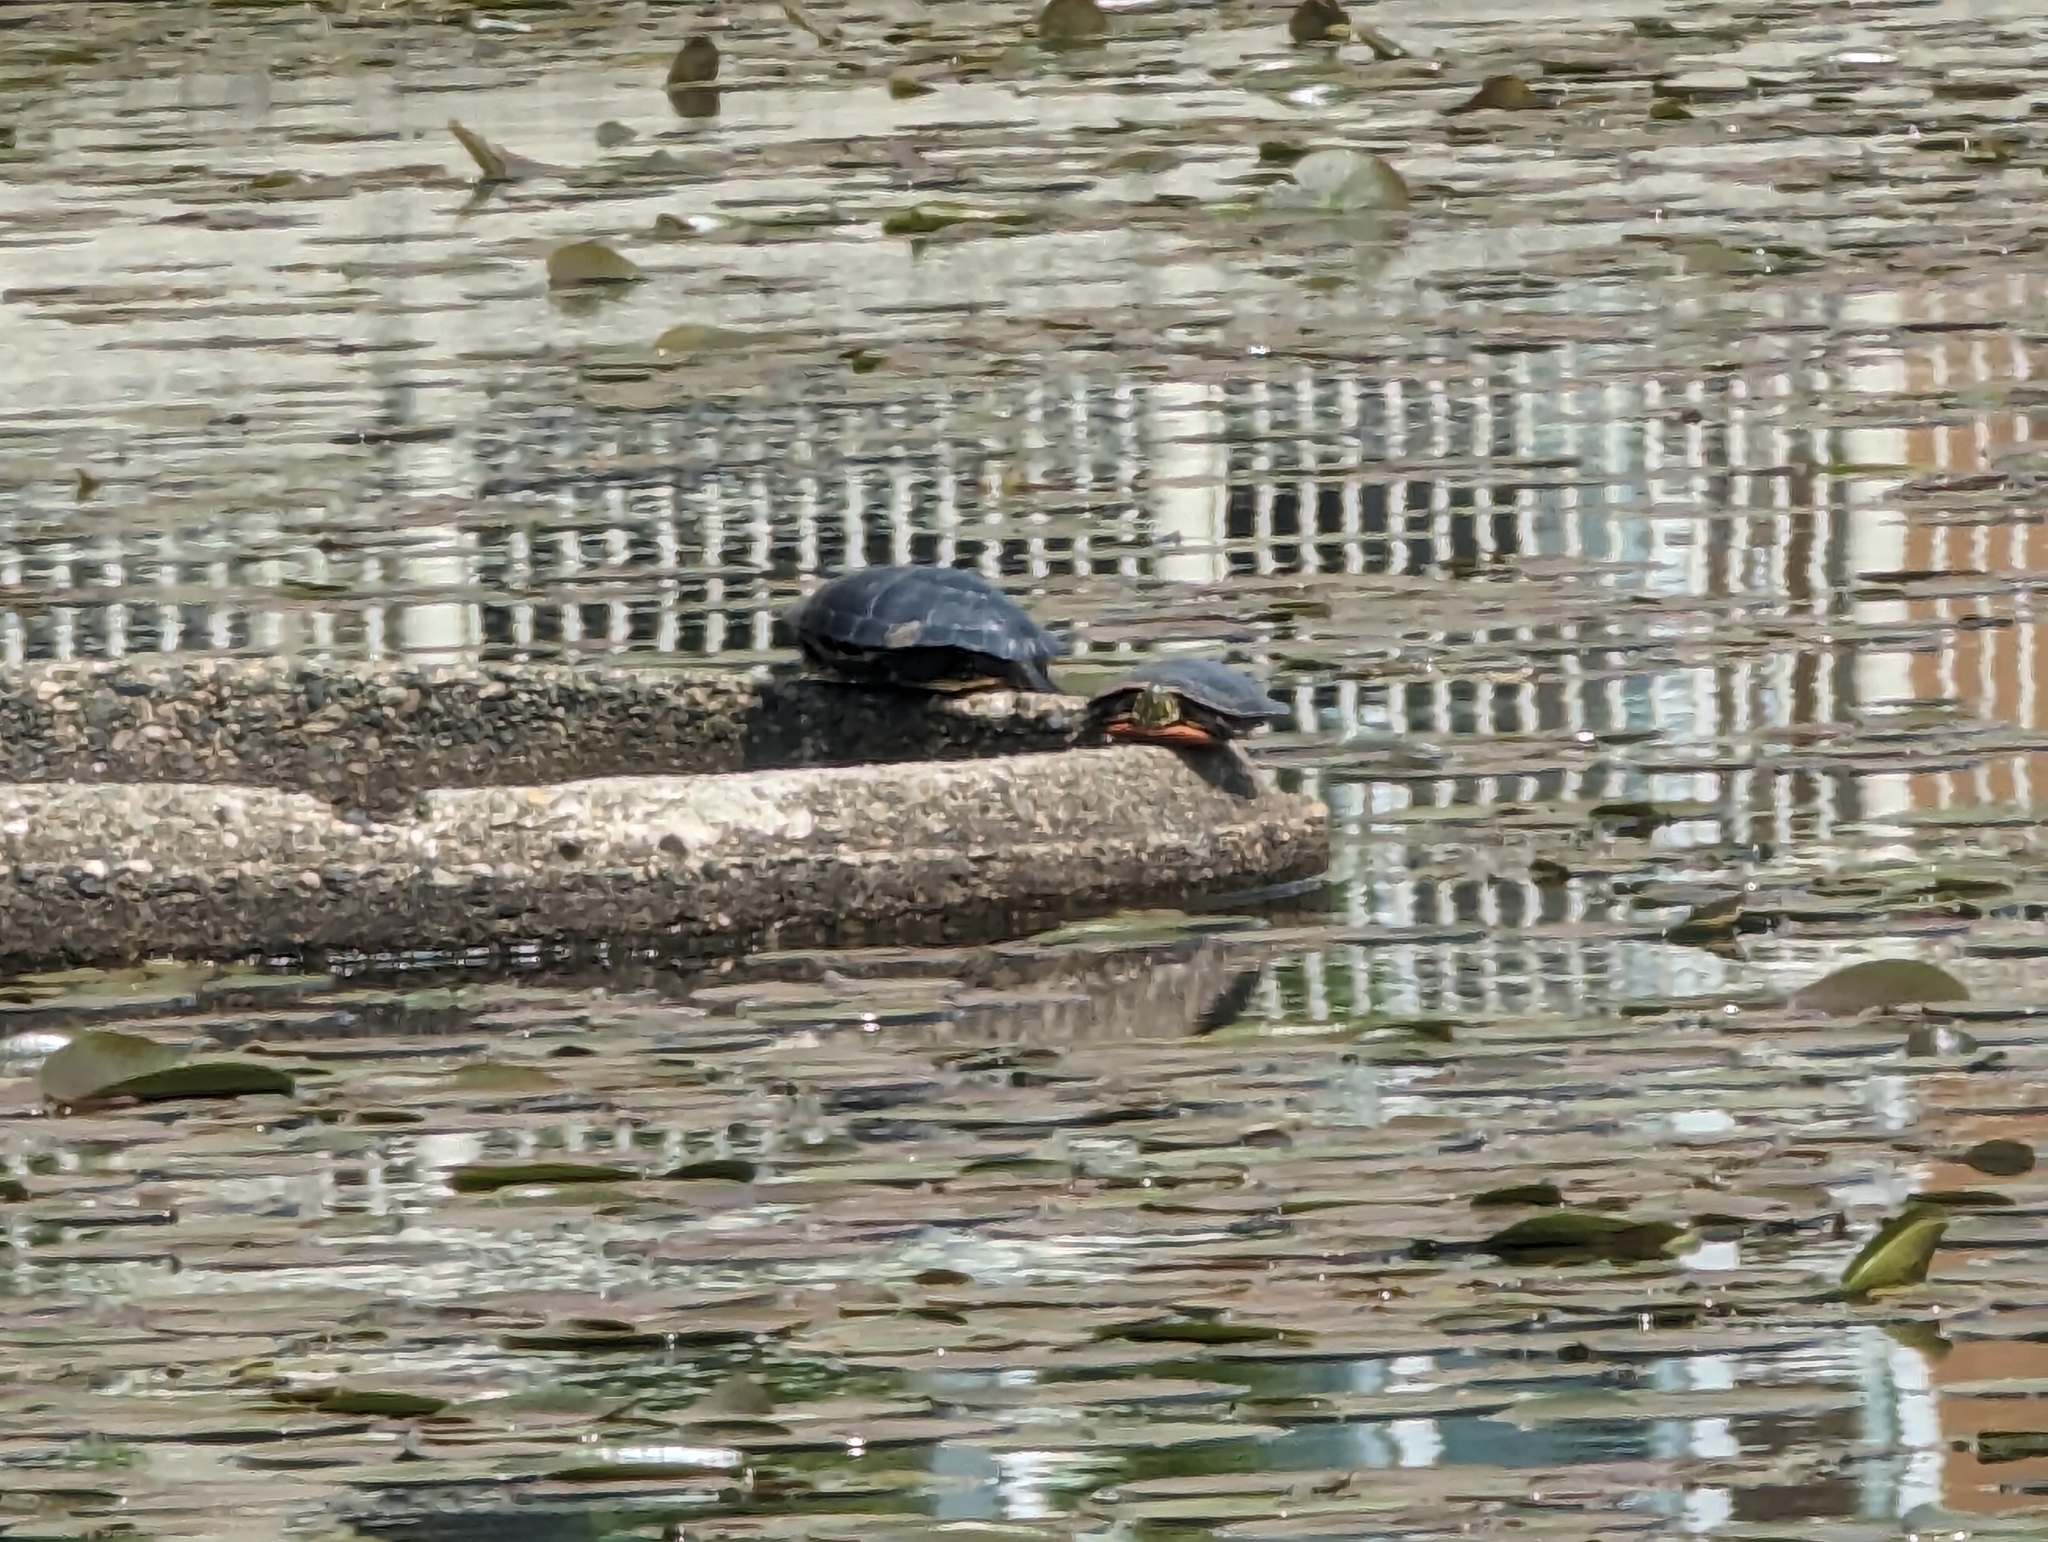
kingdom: Animalia
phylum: Chordata
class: Testudines
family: Emydidae
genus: Chrysemys
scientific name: Chrysemys picta
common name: Painted turtle
